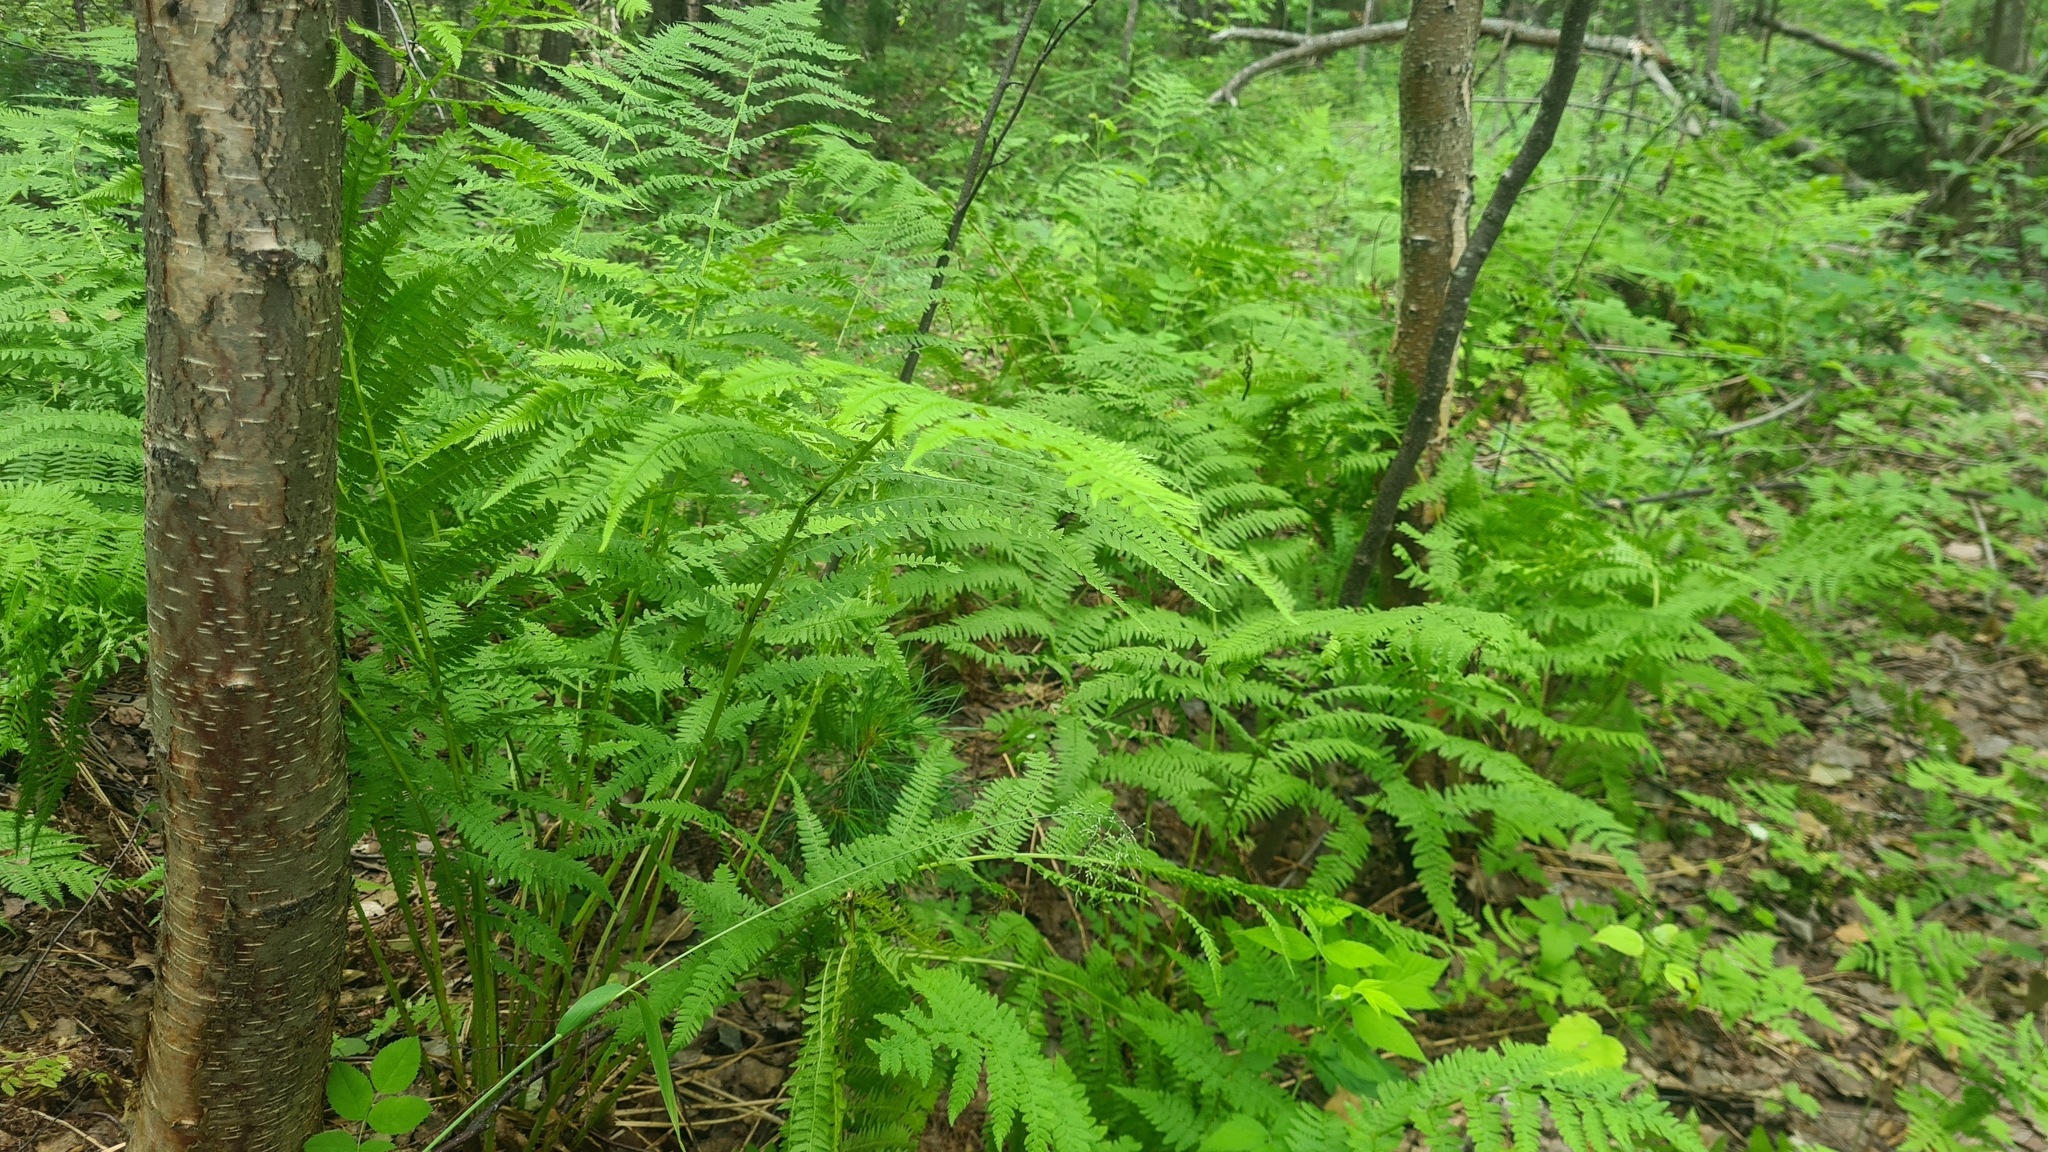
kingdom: Plantae
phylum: Tracheophyta
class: Polypodiopsida
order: Polypodiales
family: Athyriaceae
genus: Athyrium
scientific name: Athyrium filix-femina
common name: Lady fern
